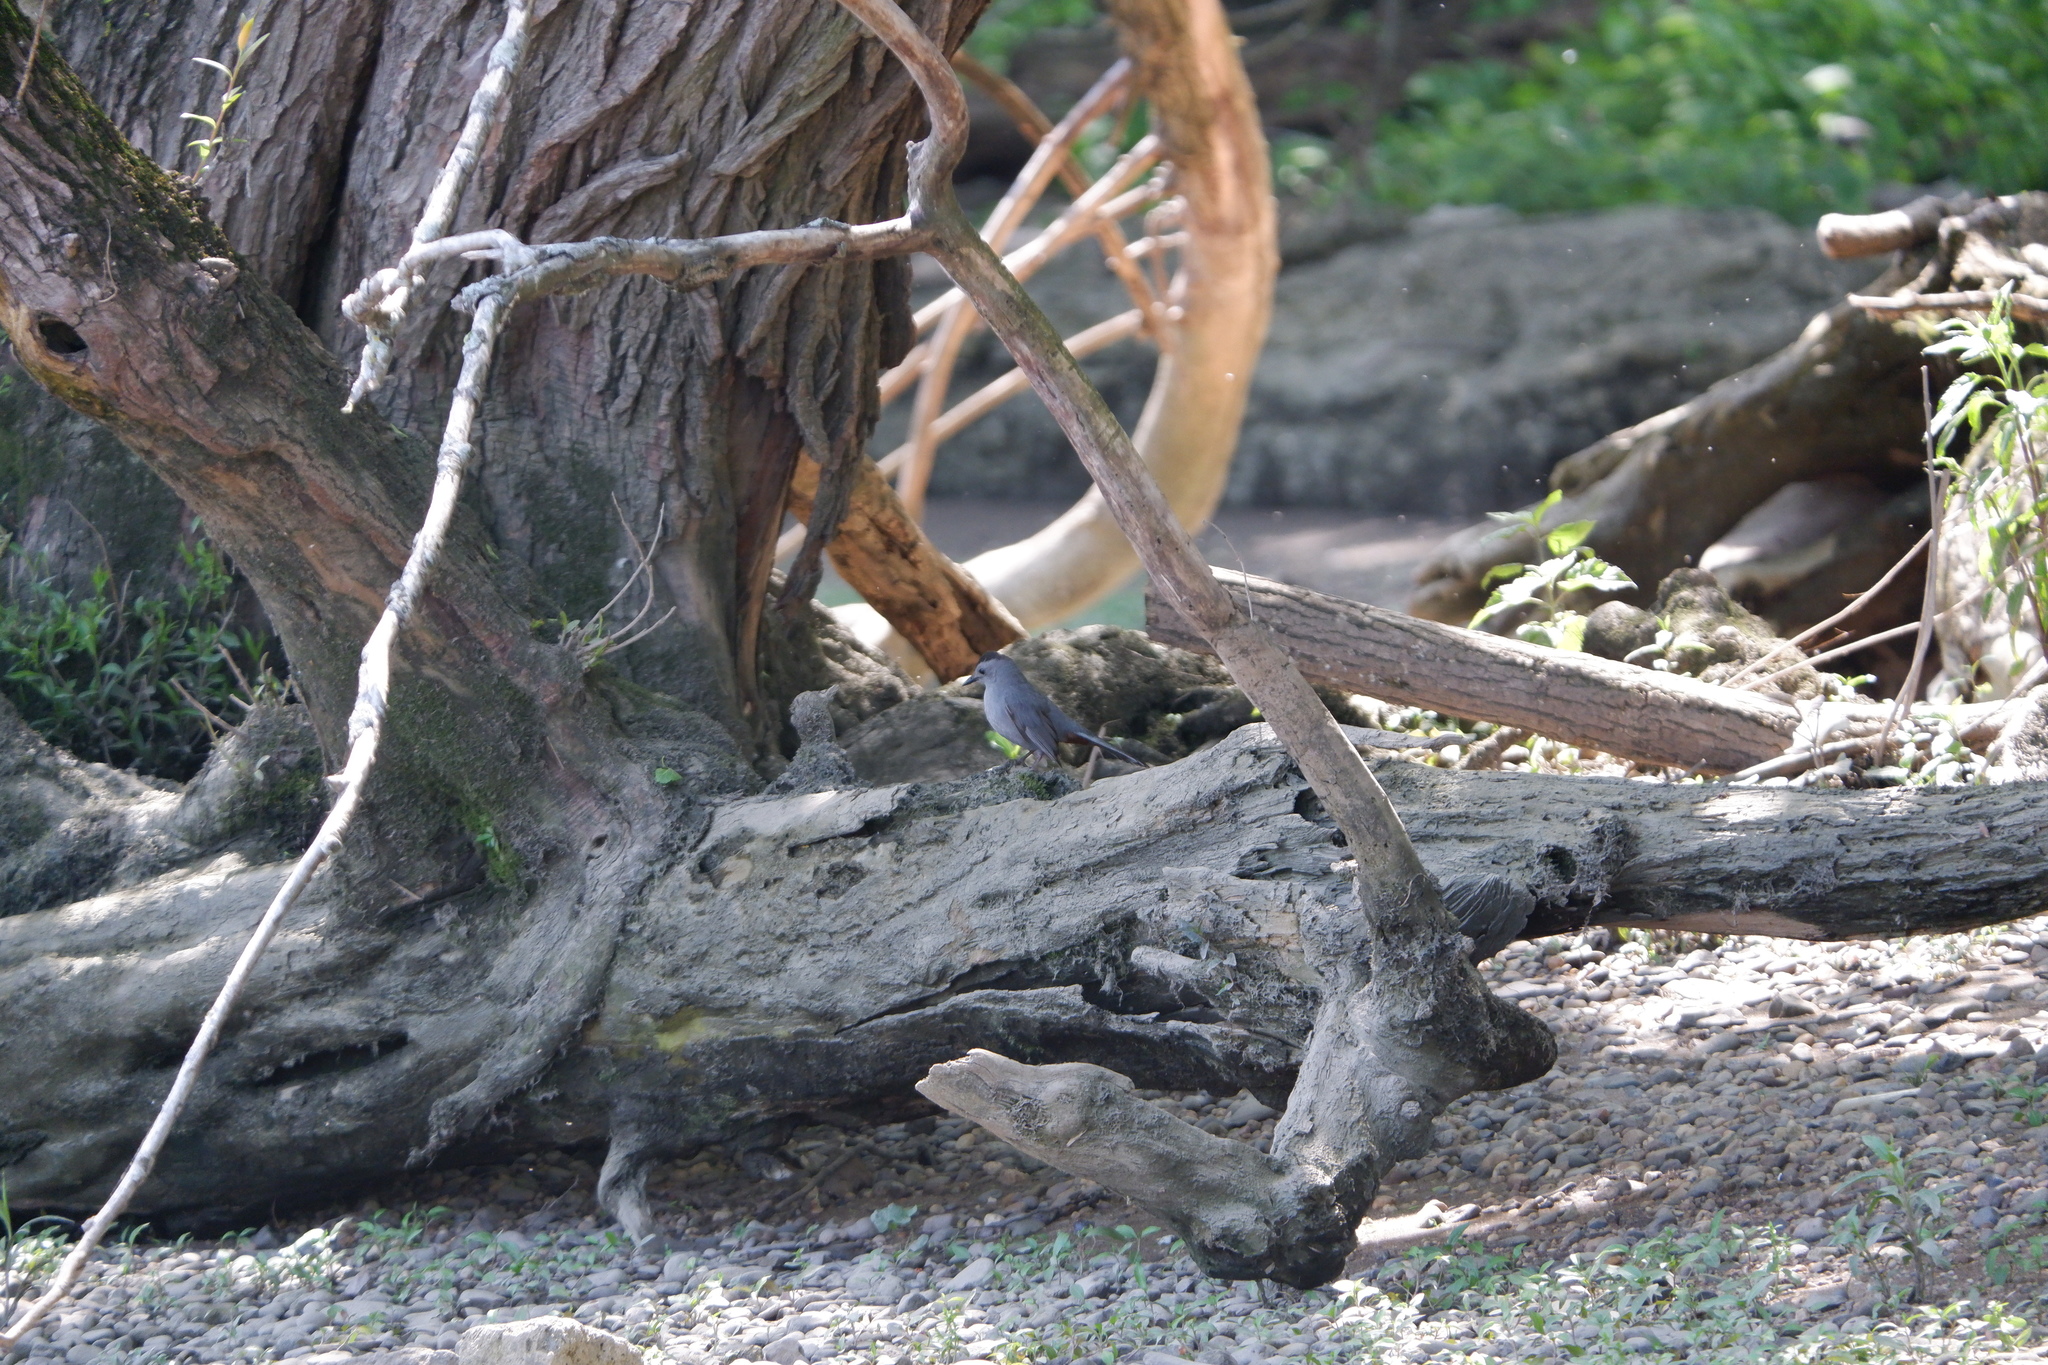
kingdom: Animalia
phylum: Chordata
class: Aves
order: Passeriformes
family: Mimidae
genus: Dumetella
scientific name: Dumetella carolinensis
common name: Gray catbird
